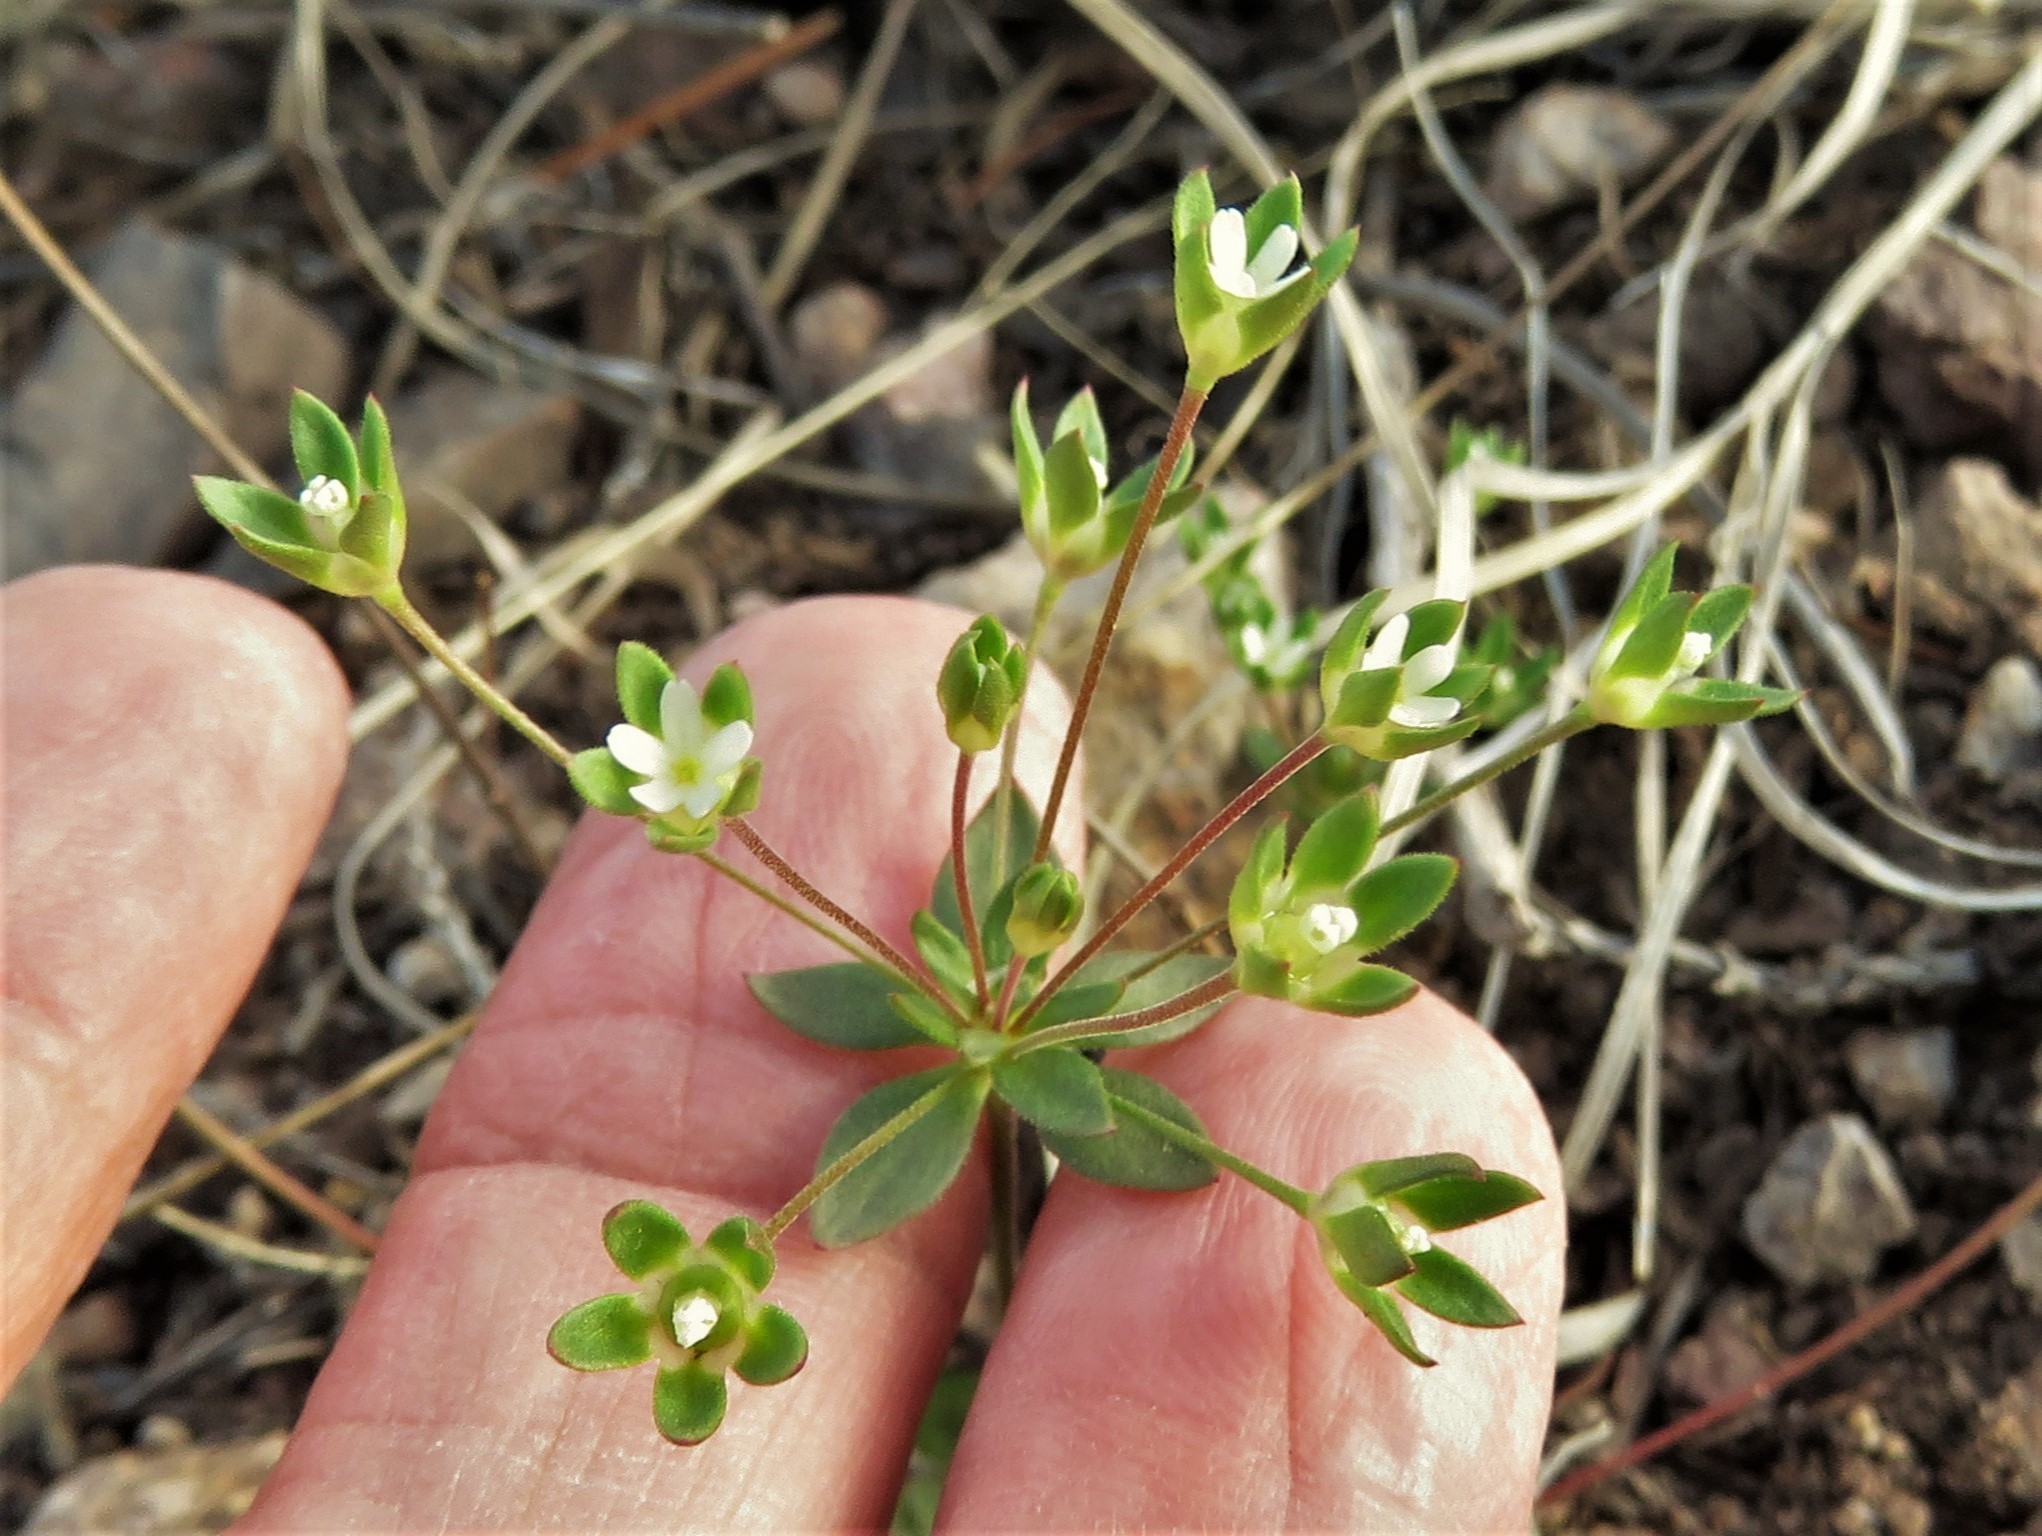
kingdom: Plantae
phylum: Tracheophyta
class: Magnoliopsida
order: Ericales
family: Primulaceae
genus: Androsace
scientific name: Androsace occidentalis
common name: West rock-jasmine
